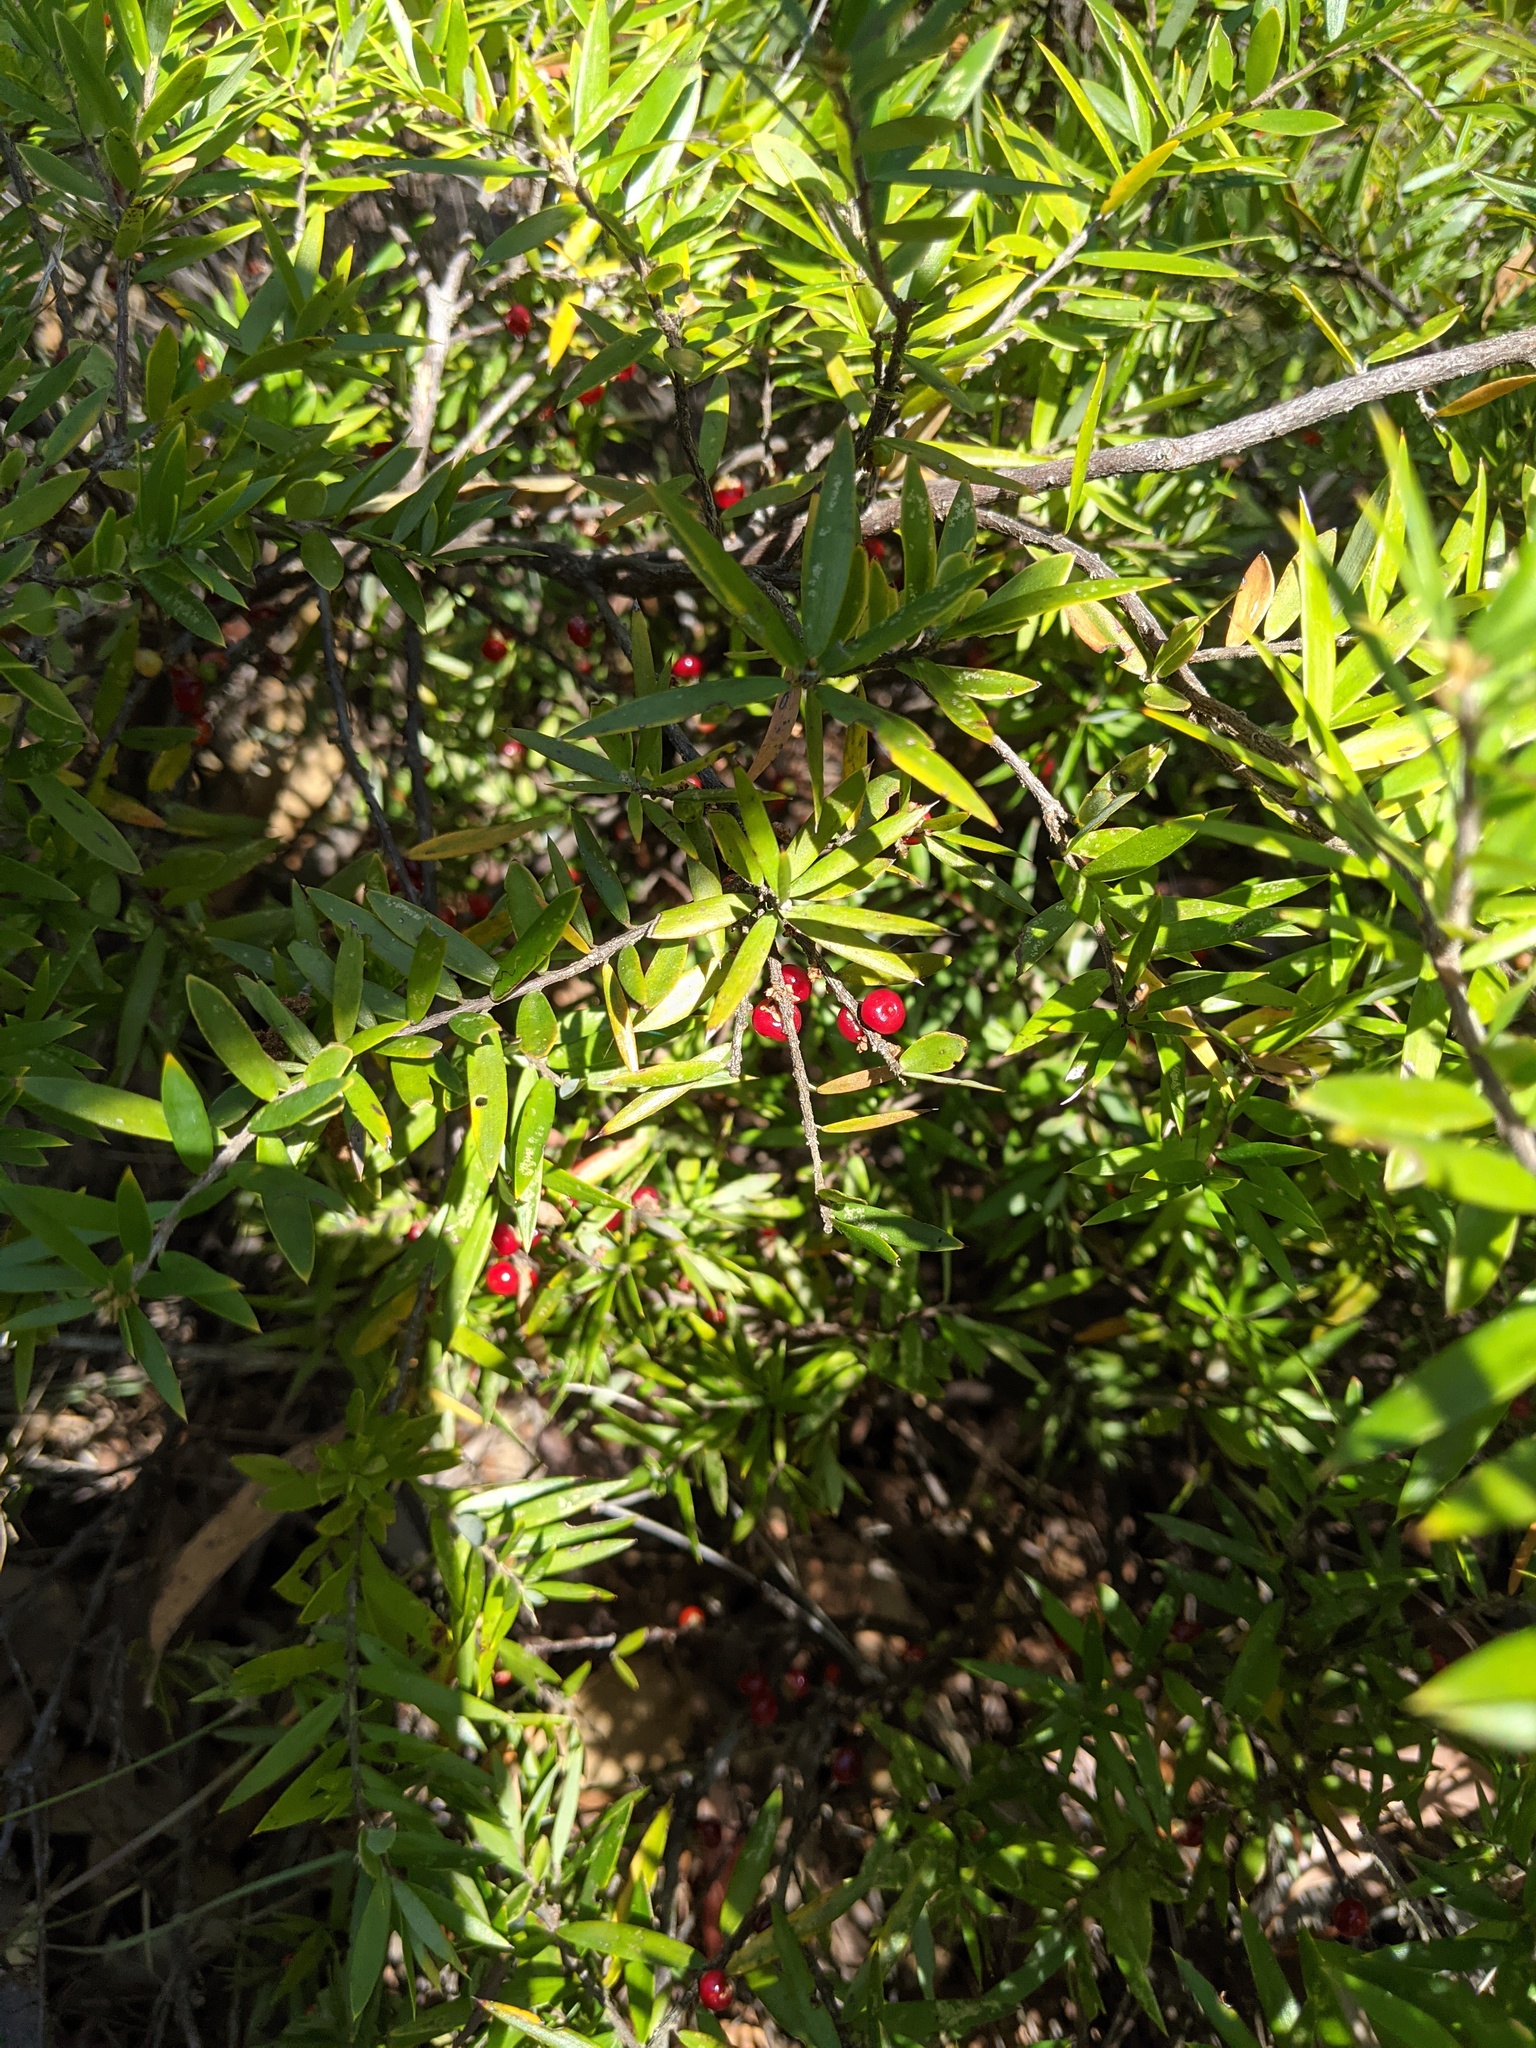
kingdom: Plantae
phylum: Tracheophyta
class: Magnoliopsida
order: Ericales
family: Ericaceae
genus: Acrotriche
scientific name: Acrotriche aggregata
